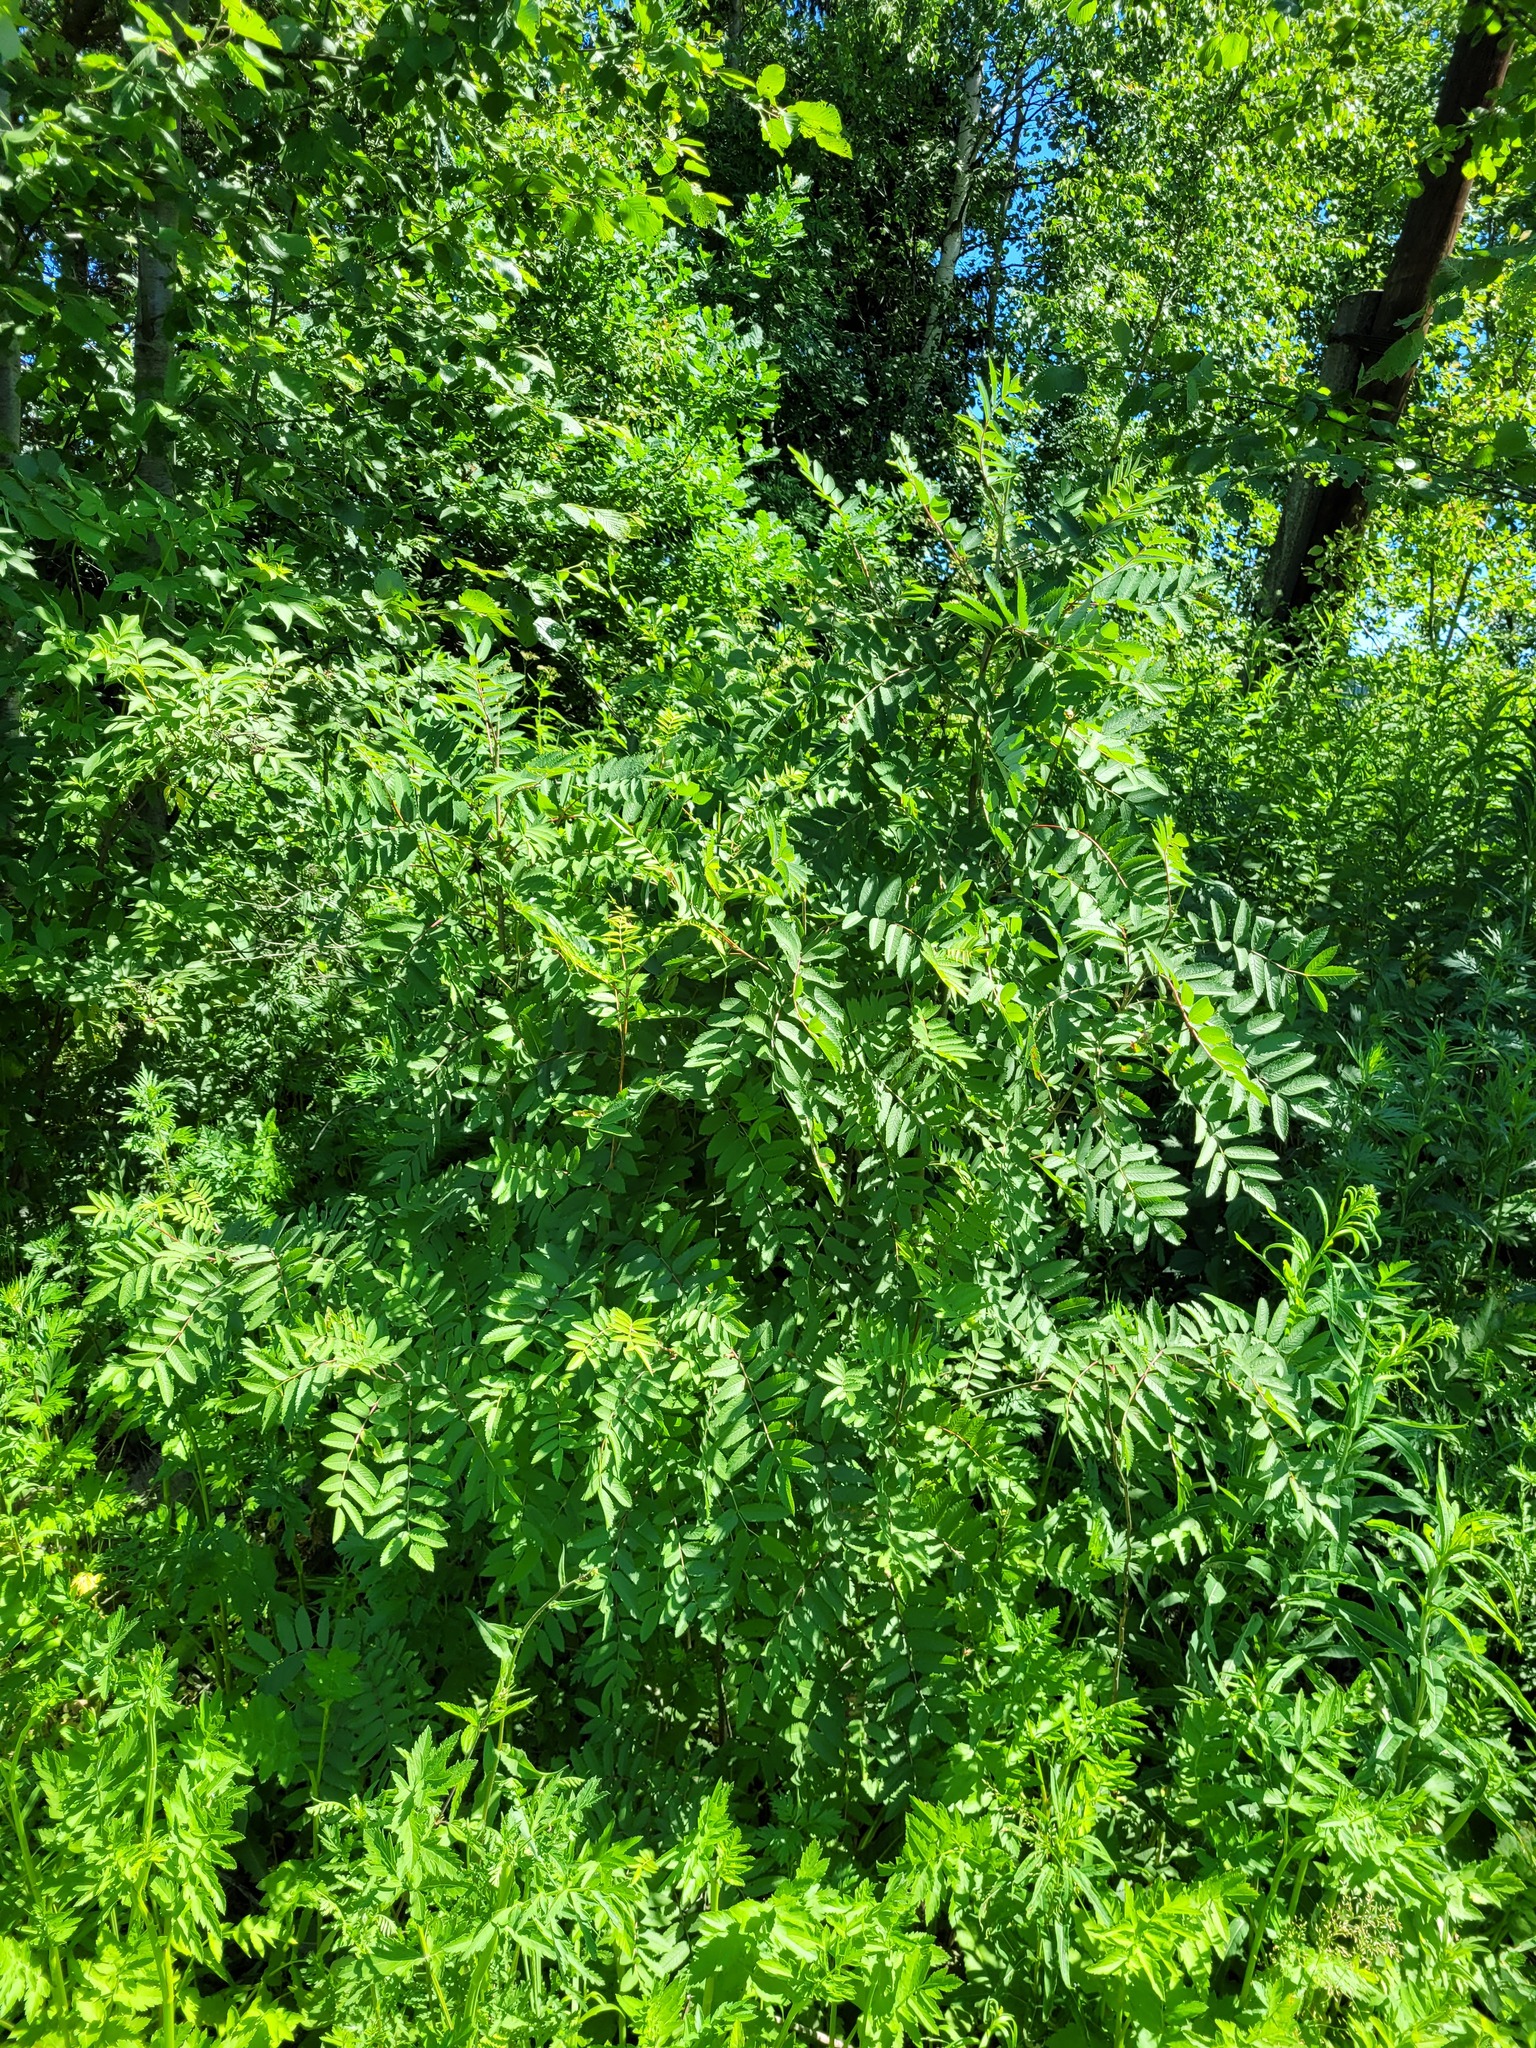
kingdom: Plantae
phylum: Tracheophyta
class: Magnoliopsida
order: Rosales
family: Rosaceae
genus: Sorbus
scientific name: Sorbus aucuparia
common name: Rowan
